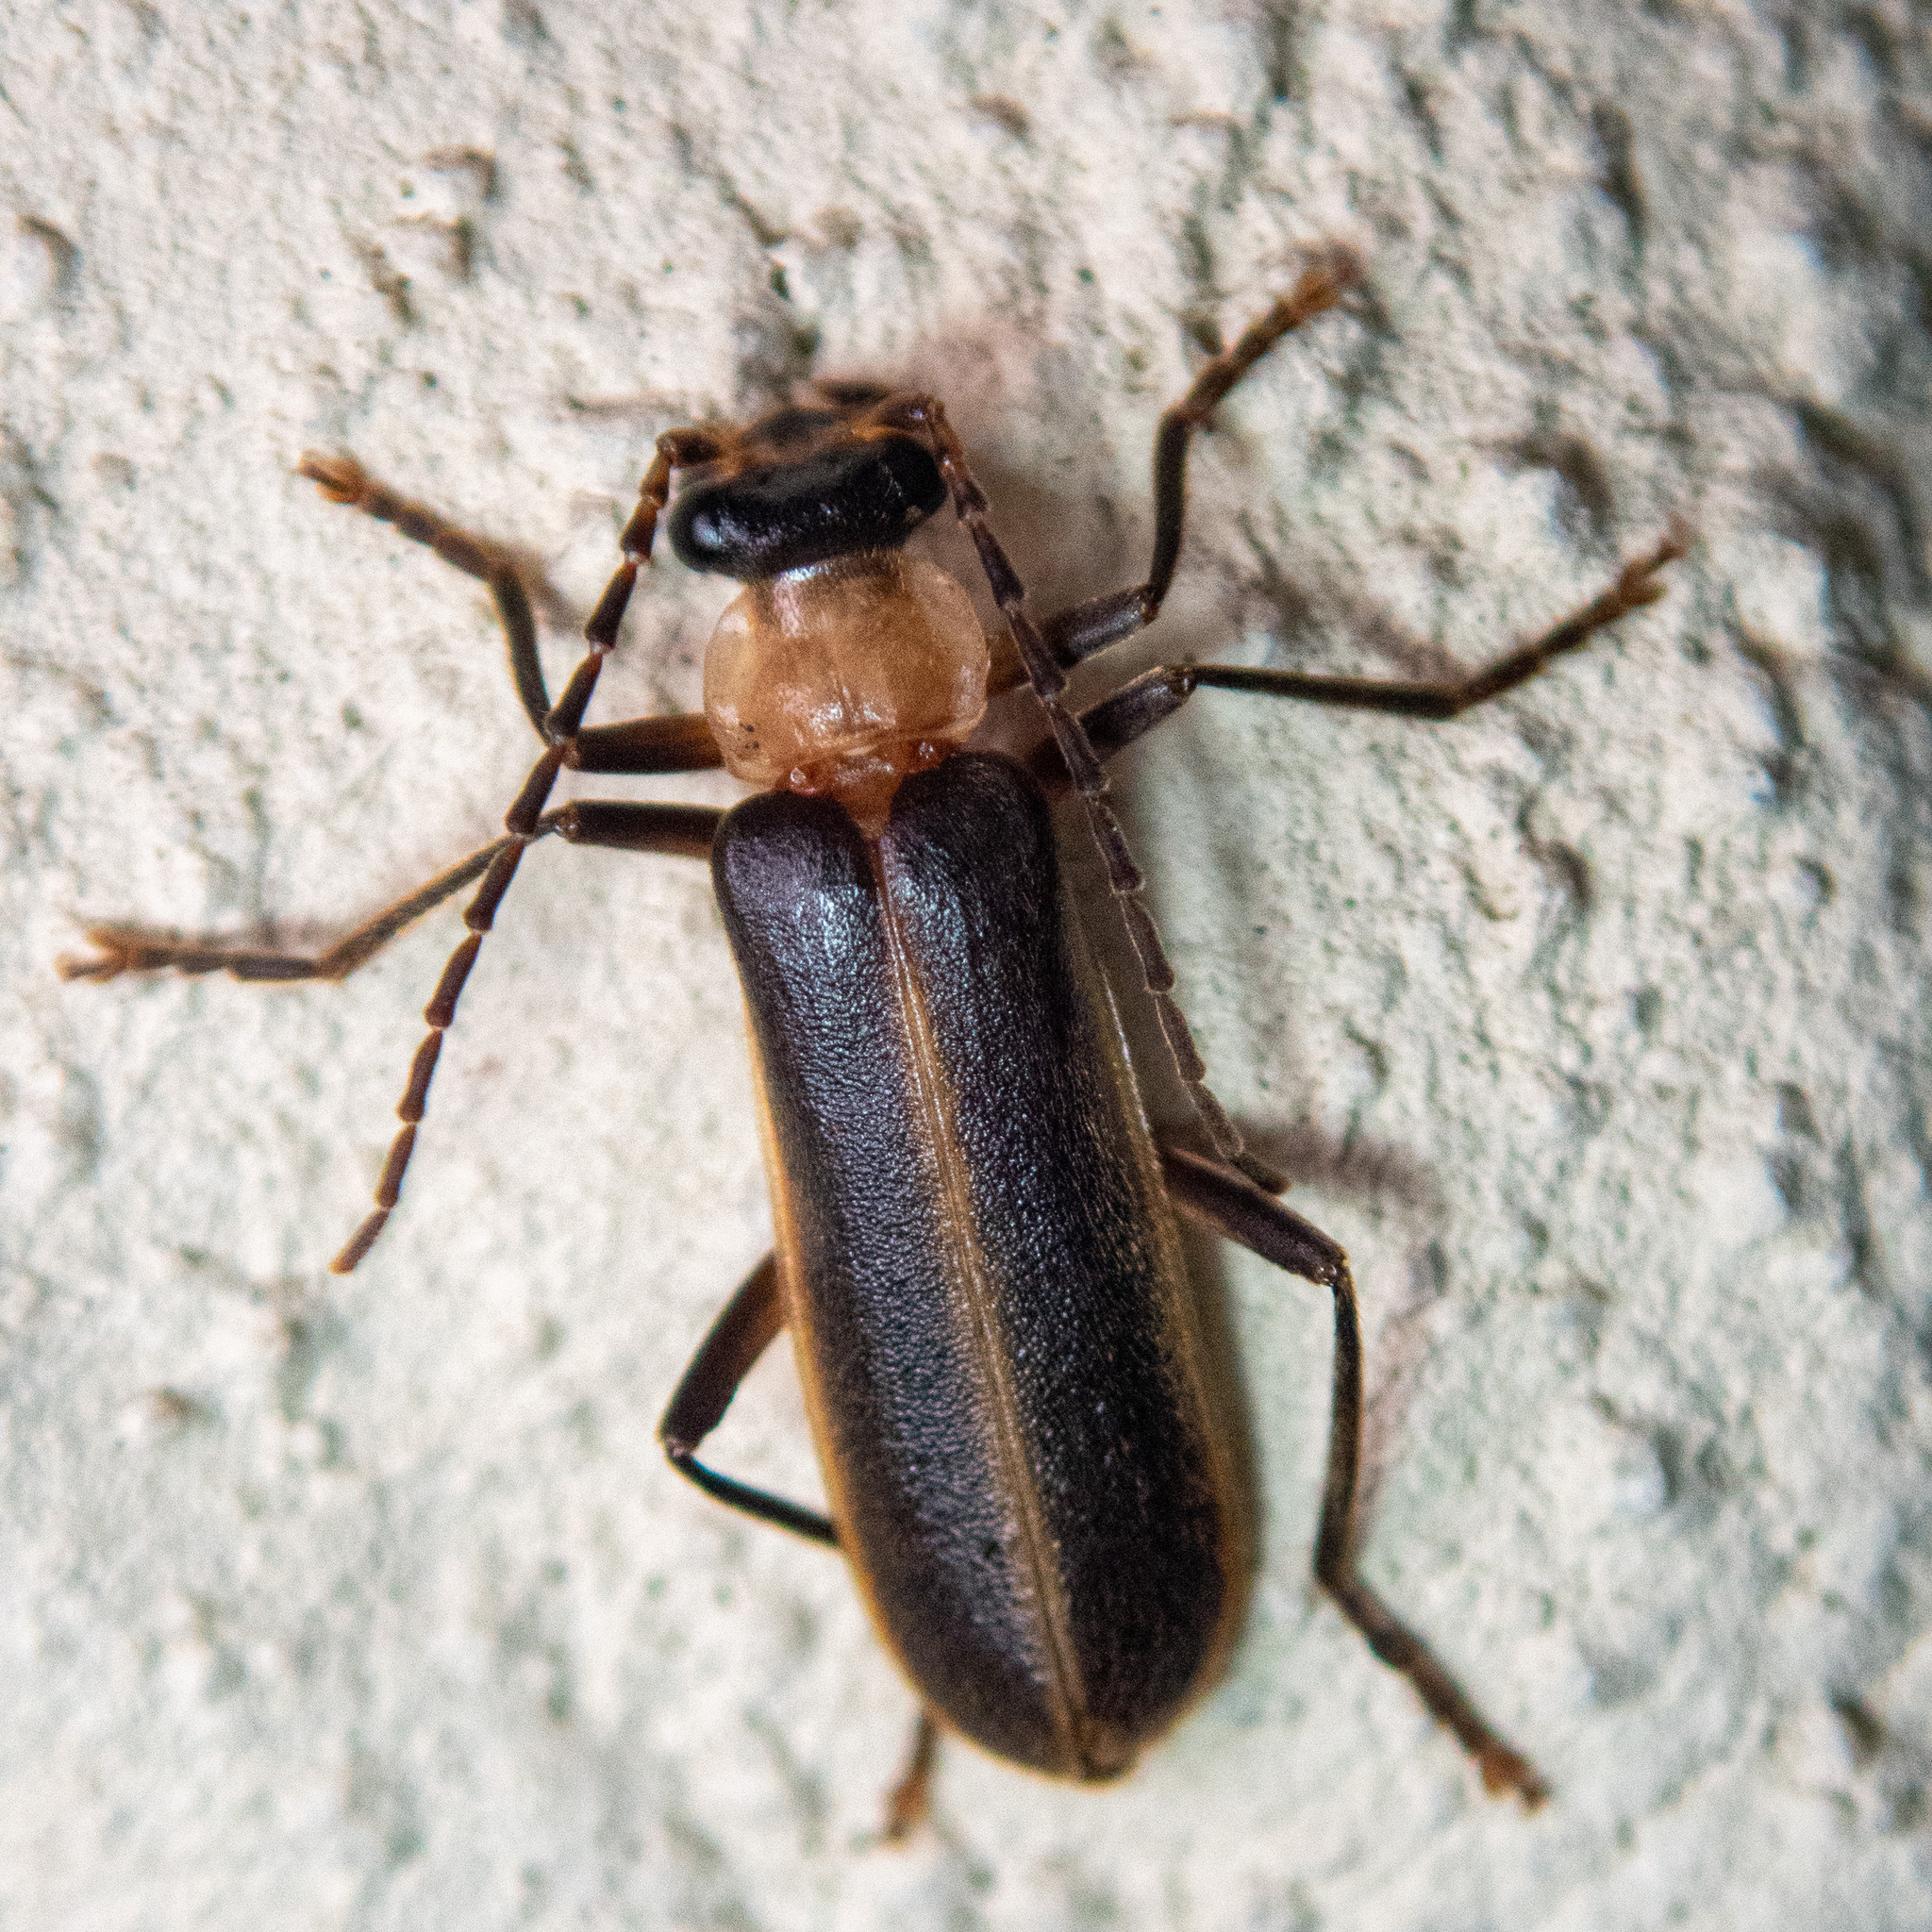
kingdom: Animalia
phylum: Arthropoda
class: Insecta
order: Coleoptera
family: Cantharidae
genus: Podabrus
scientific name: Podabrus flavicollis
